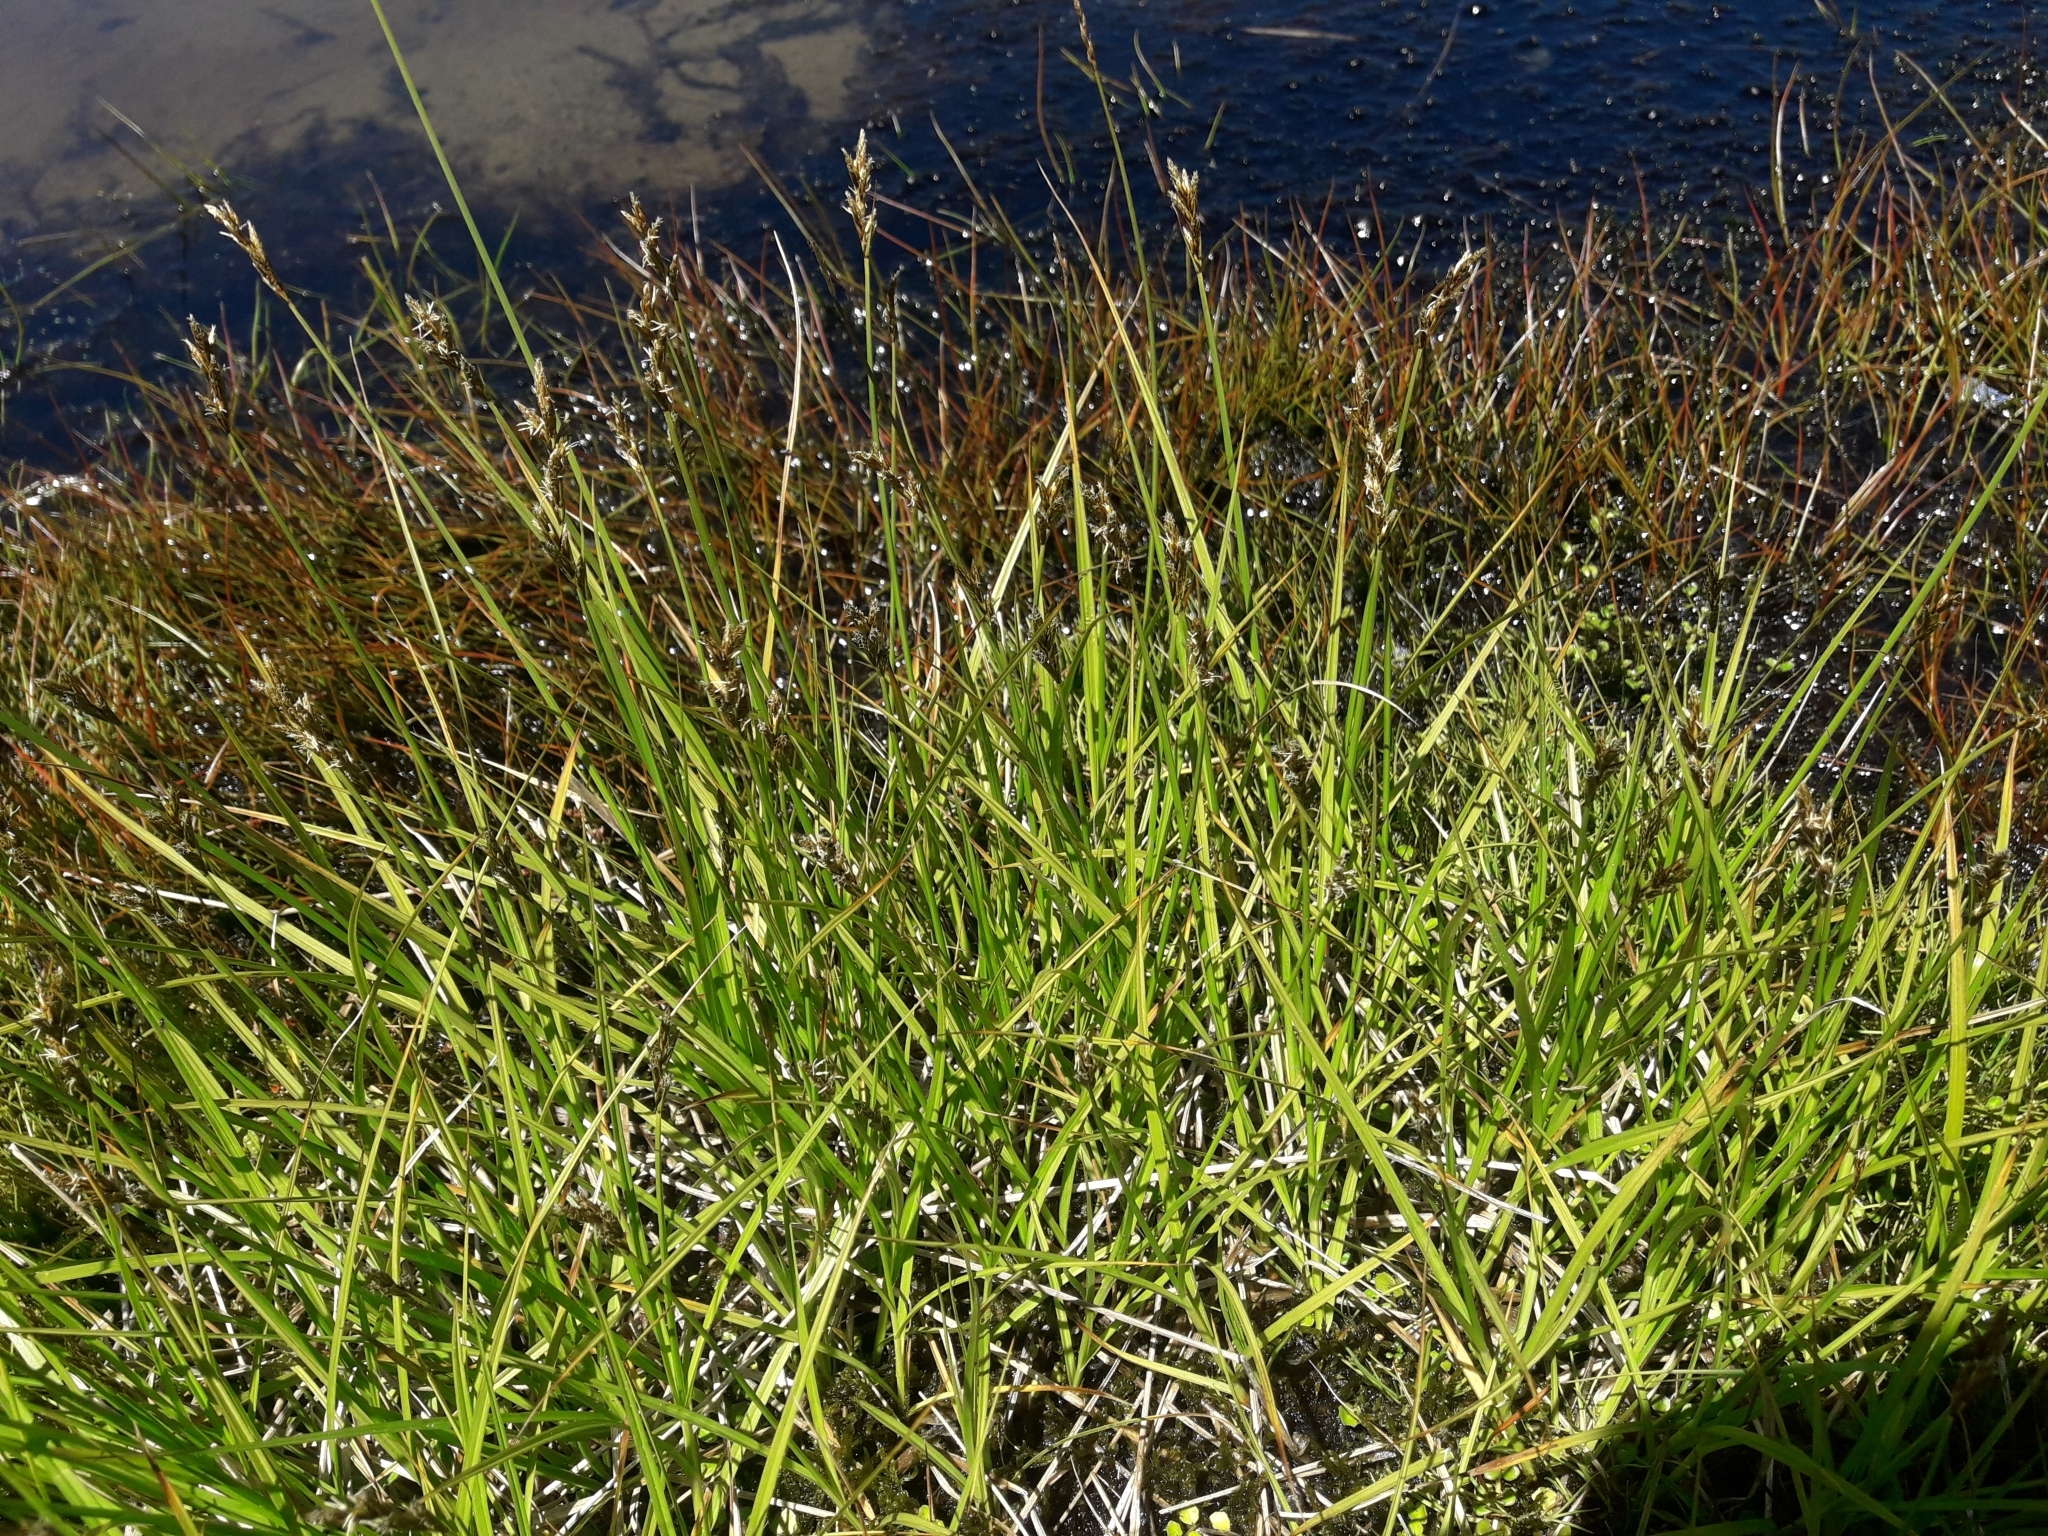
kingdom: Plantae
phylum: Tracheophyta
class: Liliopsida
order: Poales
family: Cyperaceae
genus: Carex
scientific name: Carex leporina
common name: Oval sedge
